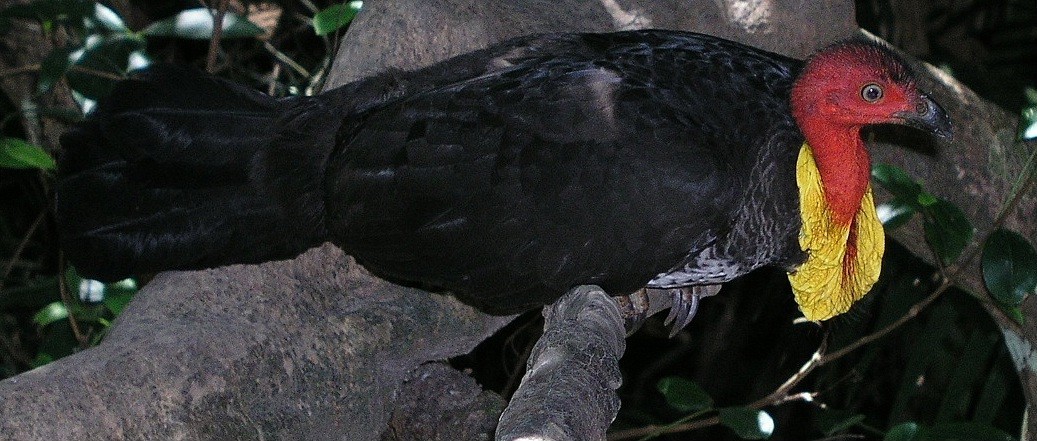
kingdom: Animalia
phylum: Chordata
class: Aves
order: Galliformes
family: Megapodiidae
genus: Alectura
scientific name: Alectura lathami
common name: Australian brushturkey
